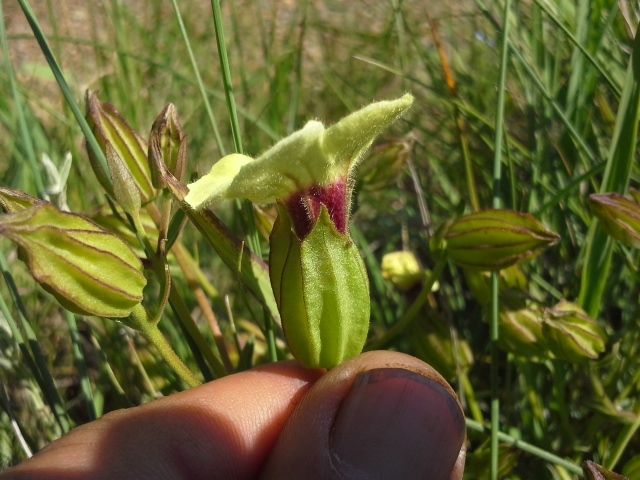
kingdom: Plantae
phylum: Tracheophyta
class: Magnoliopsida
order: Lamiales
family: Orobanchaceae
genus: Melasma
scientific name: Melasma scabrum
